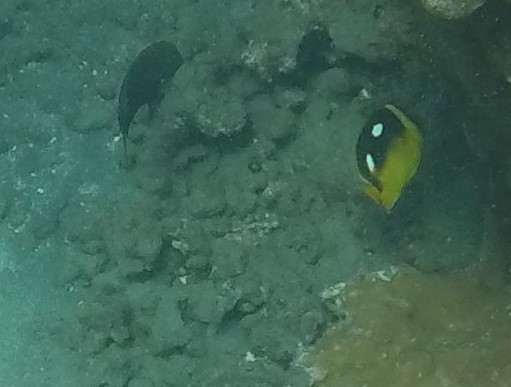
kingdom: Animalia
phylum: Chordata
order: Perciformes
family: Chaetodontidae
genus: Chaetodon
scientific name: Chaetodon quadrimaculatus
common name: Fourspot butterflyfish
